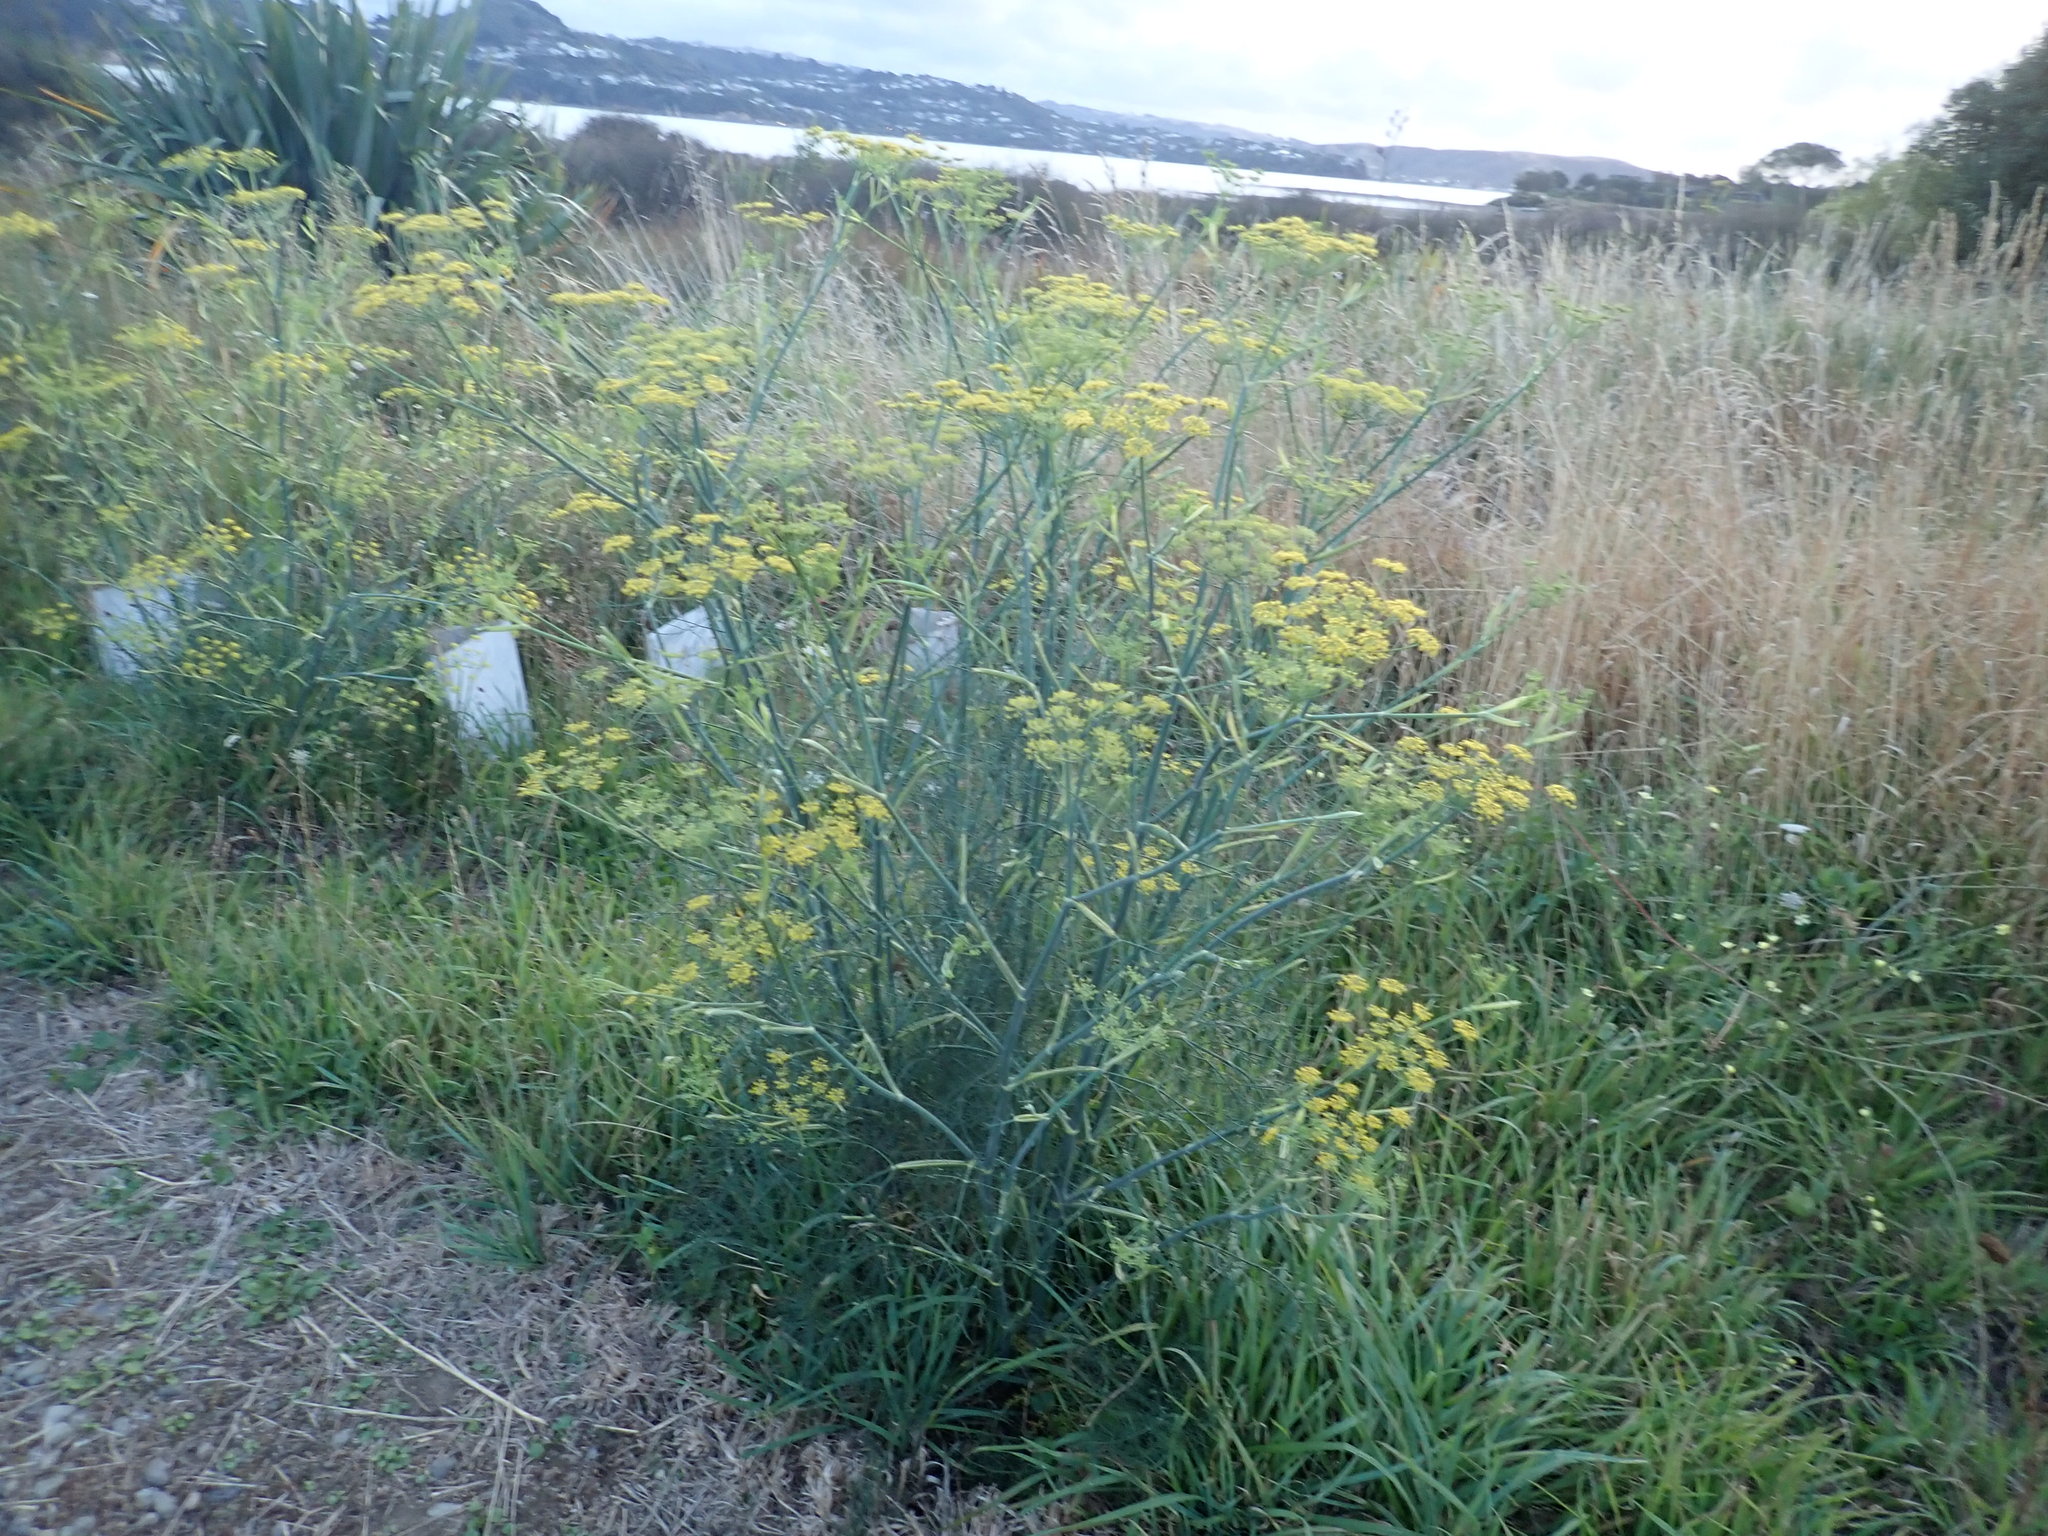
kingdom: Plantae
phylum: Tracheophyta
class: Magnoliopsida
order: Apiales
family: Apiaceae
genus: Foeniculum
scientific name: Foeniculum vulgare
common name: Fennel
